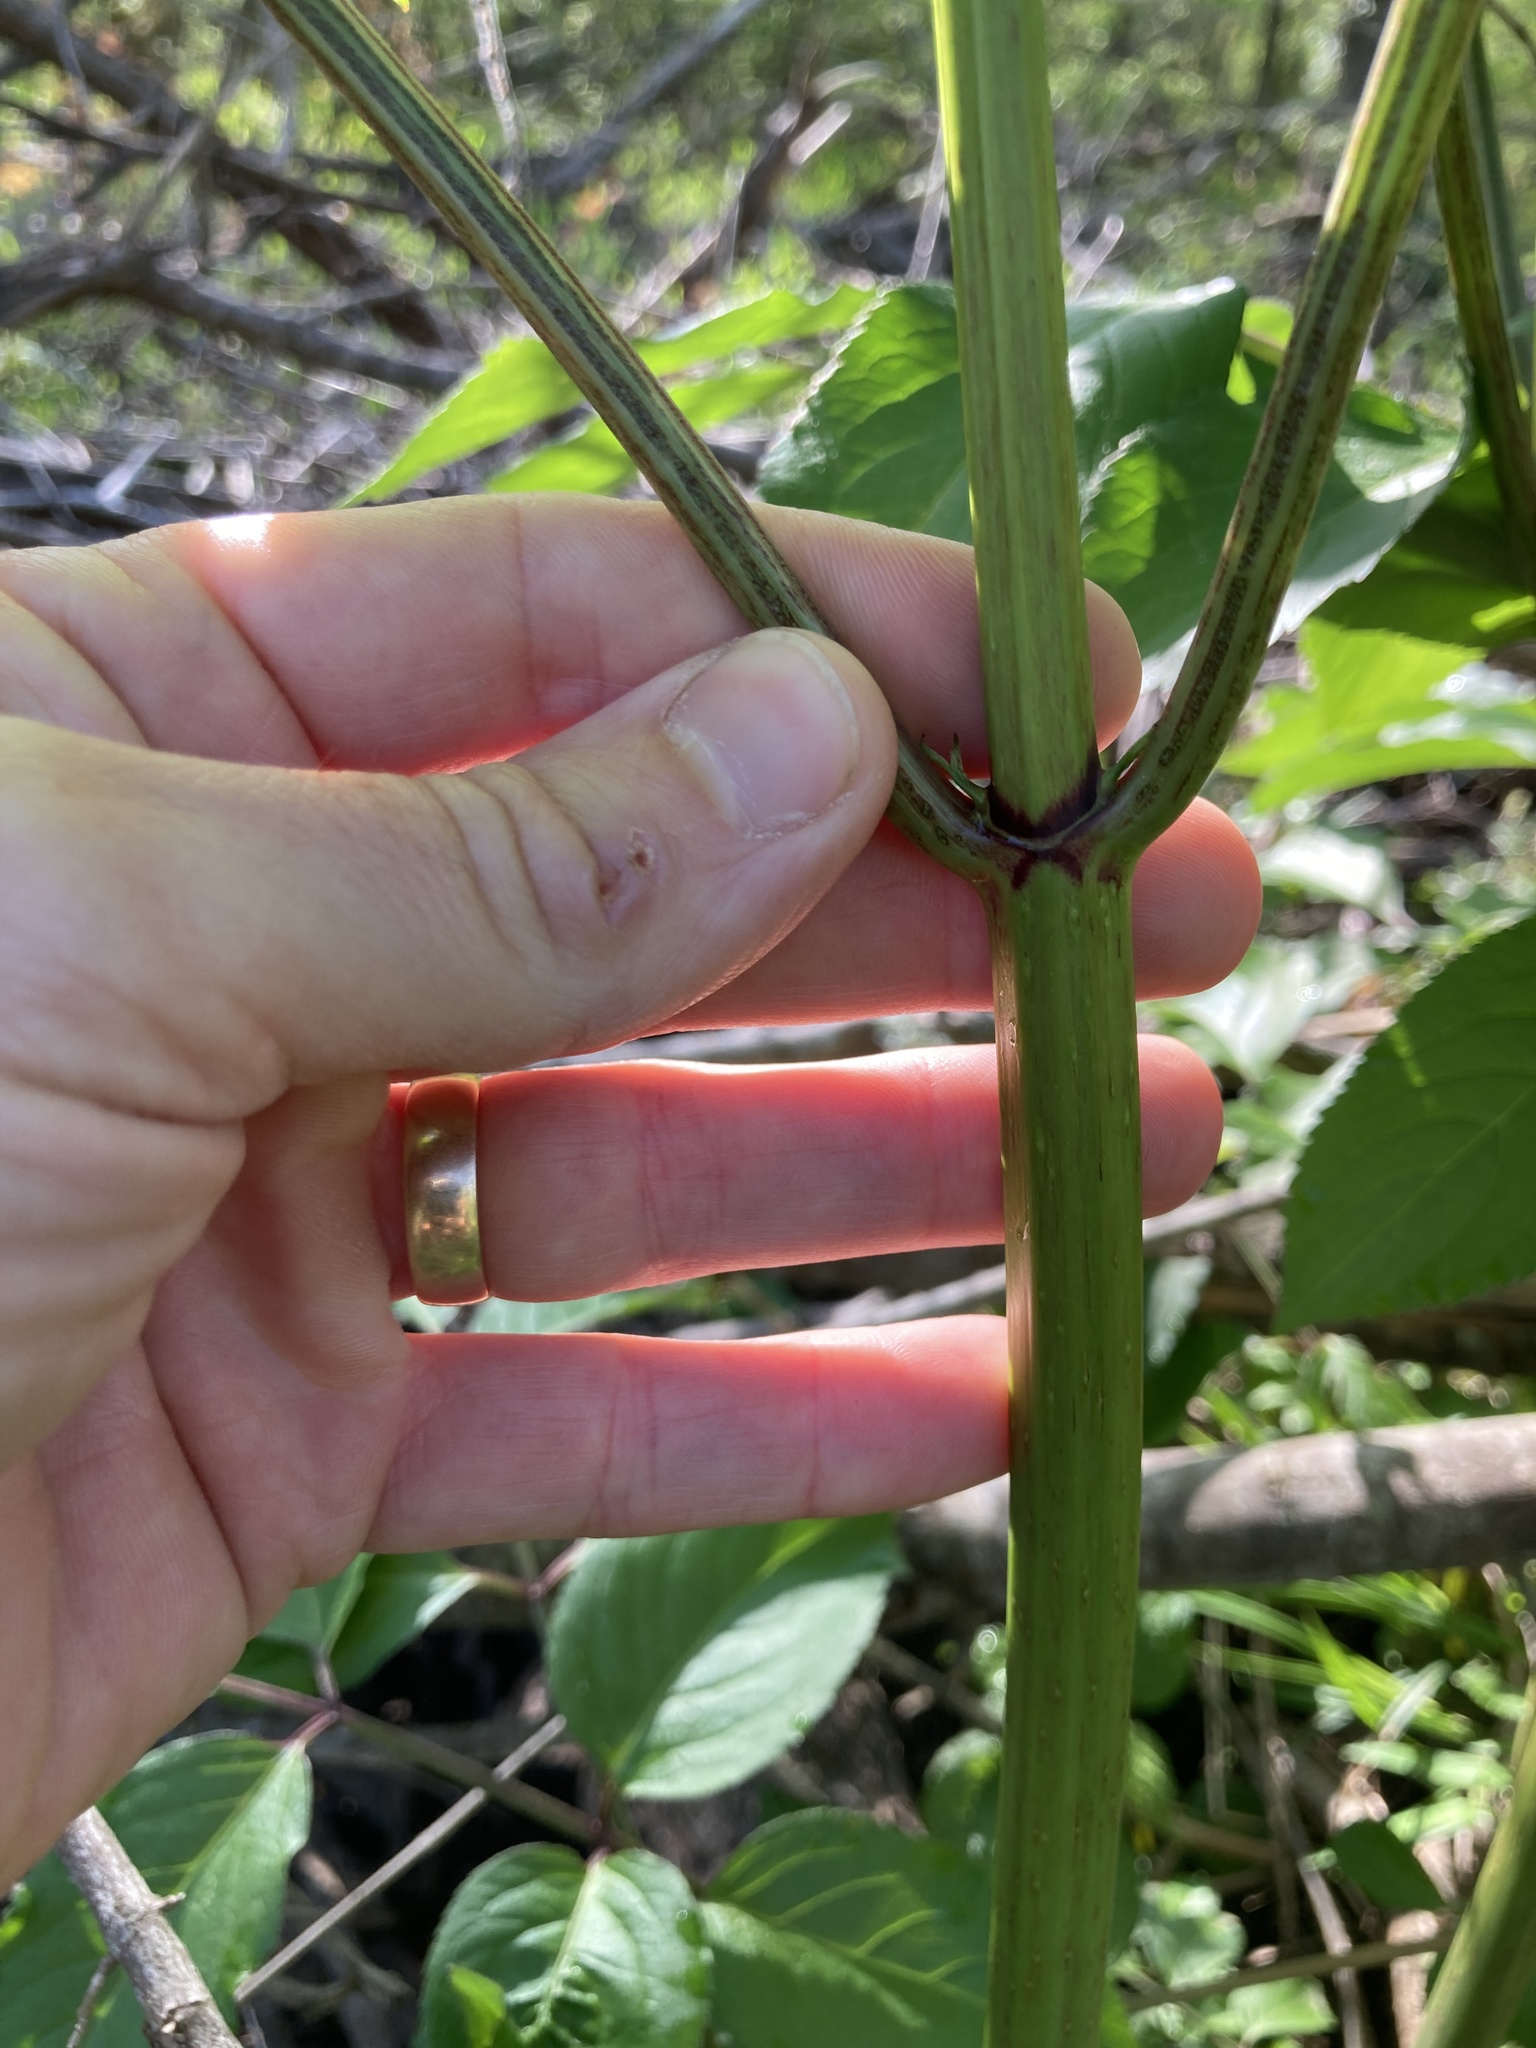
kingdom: Plantae
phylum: Tracheophyta
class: Magnoliopsida
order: Dipsacales
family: Viburnaceae
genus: Sambucus
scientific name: Sambucus canadensis
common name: American elder
